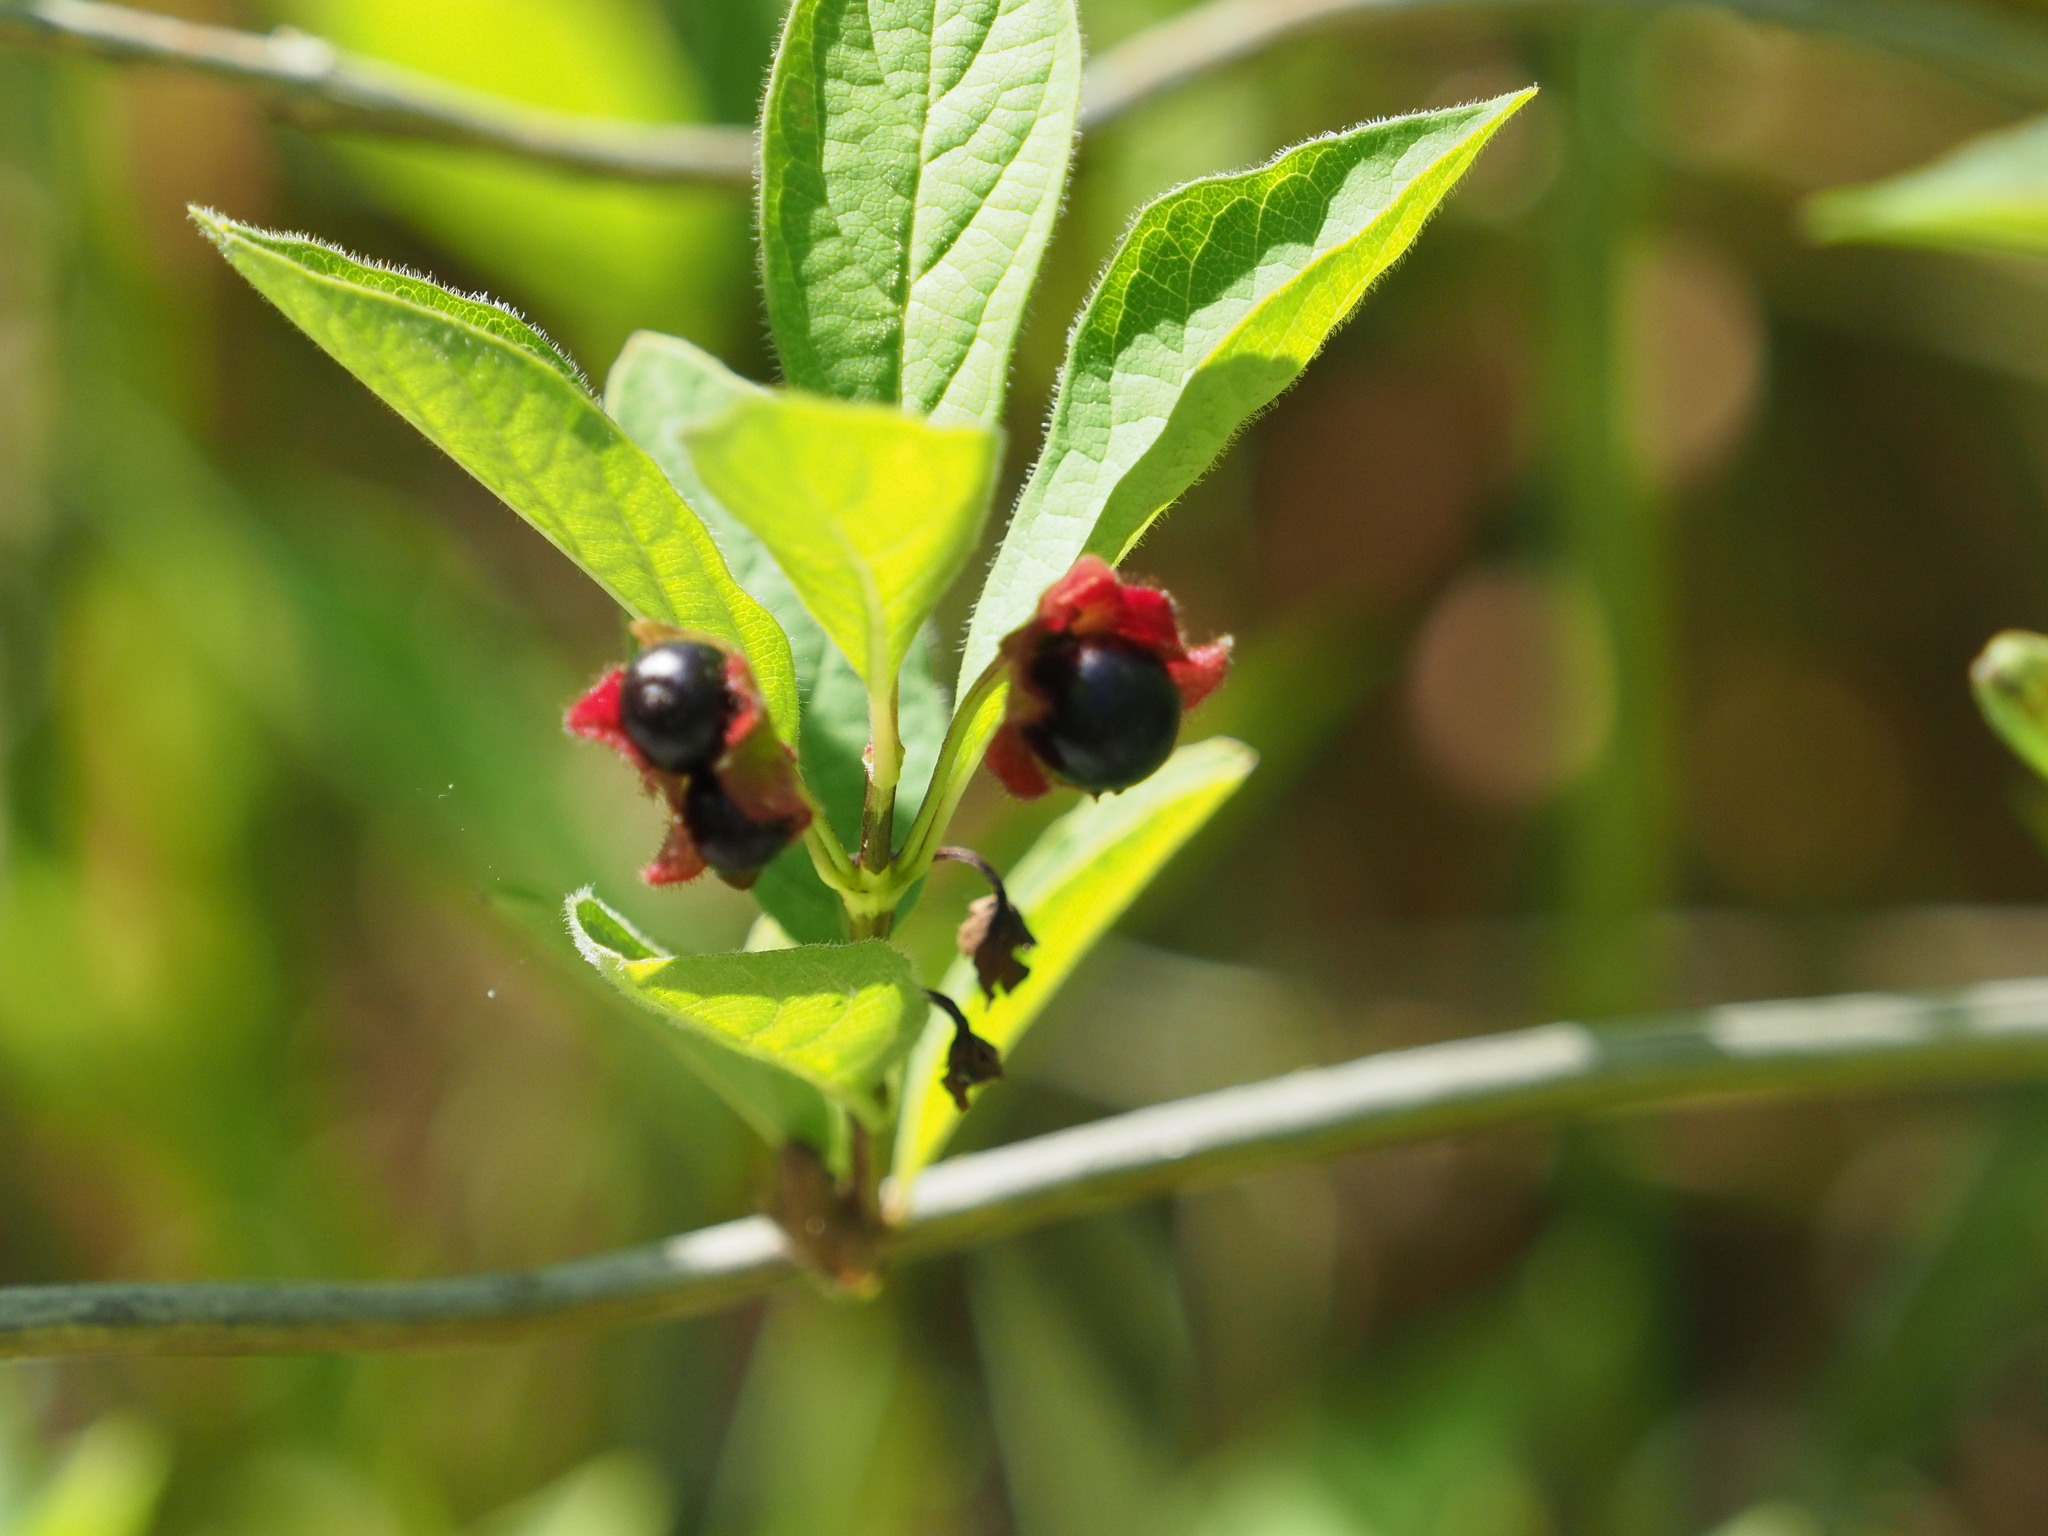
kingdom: Plantae
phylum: Tracheophyta
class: Magnoliopsida
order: Dipsacales
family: Caprifoliaceae
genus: Lonicera
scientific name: Lonicera involucrata
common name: Californian honeysuckle
